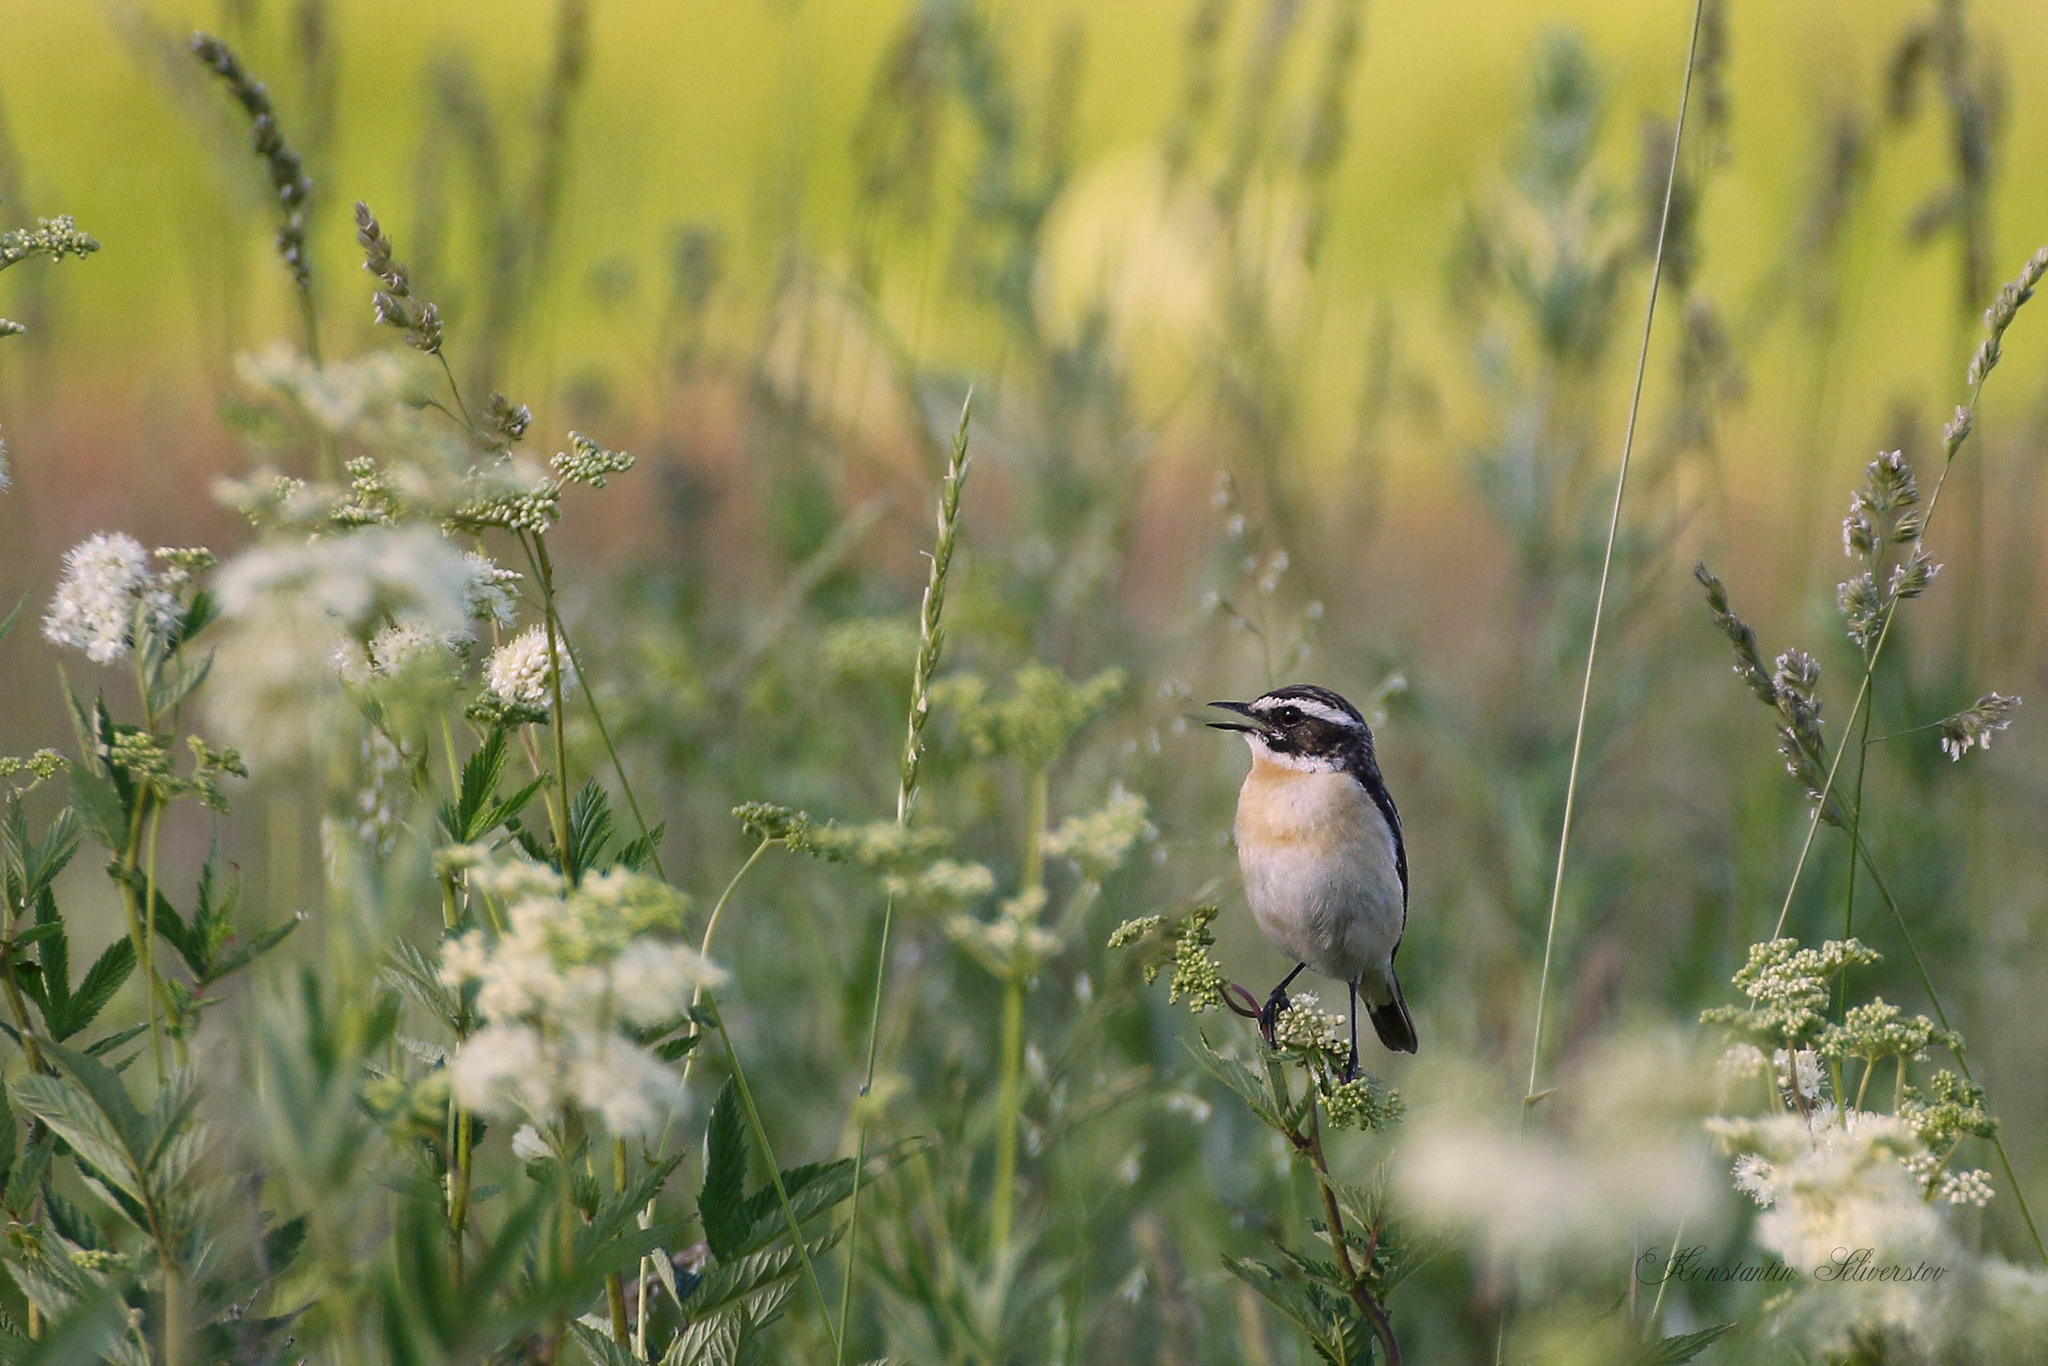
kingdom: Animalia
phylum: Chordata
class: Aves
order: Passeriformes
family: Muscicapidae
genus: Saxicola
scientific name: Saxicola rubetra
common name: Whinchat
